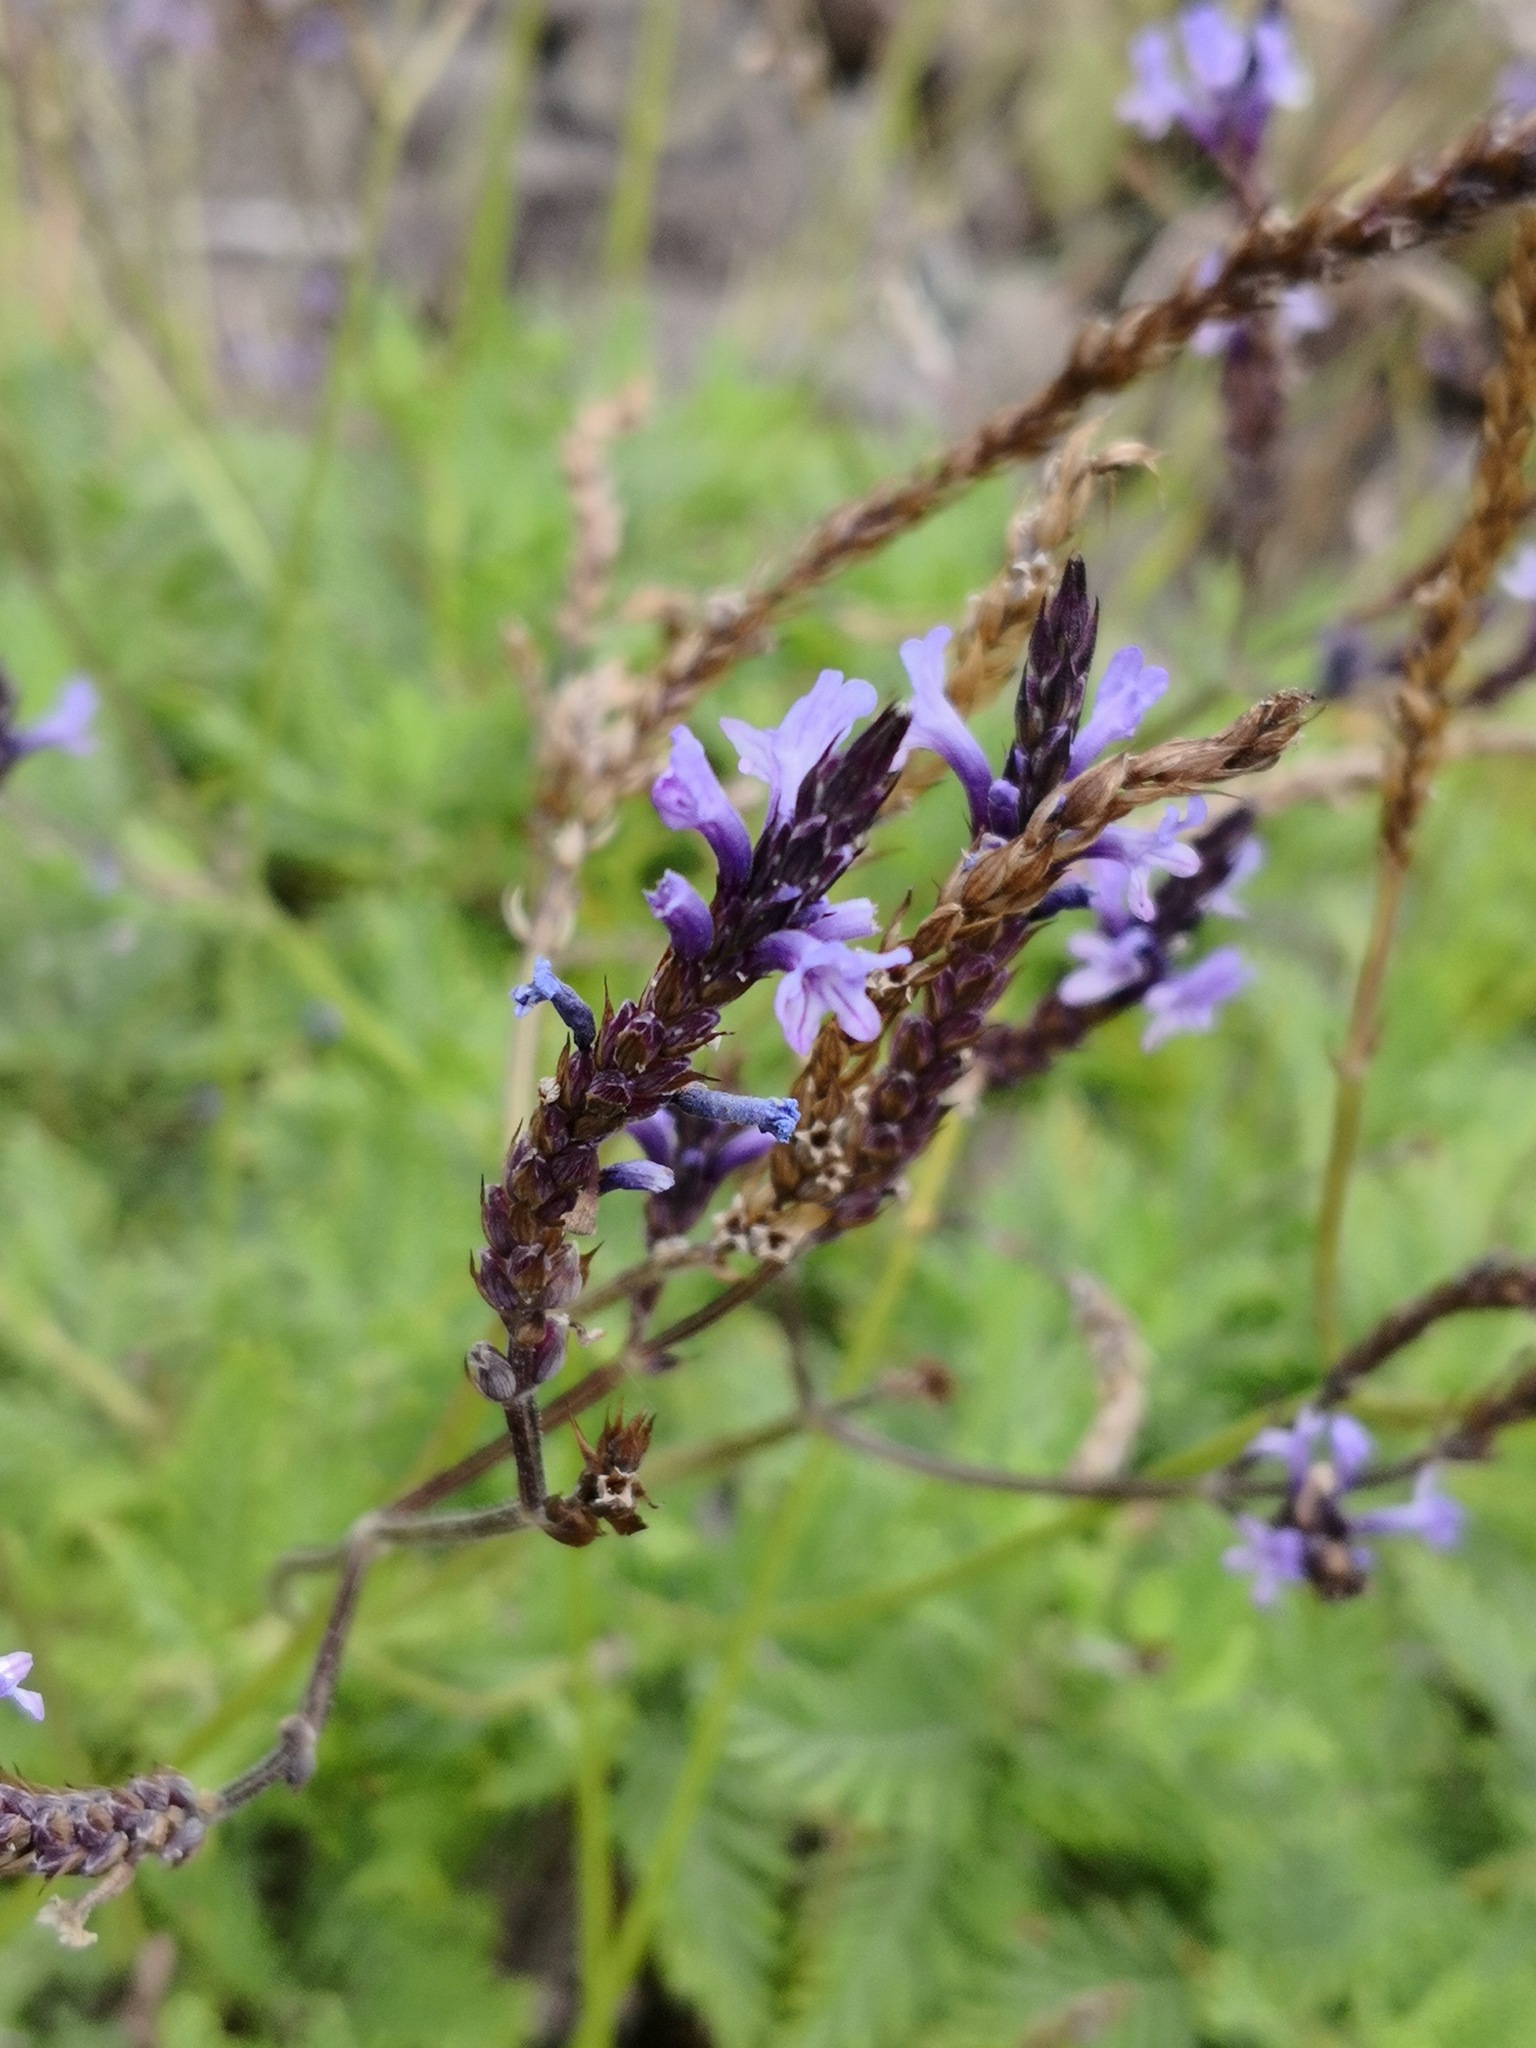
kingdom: Plantae
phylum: Tracheophyta
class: Magnoliopsida
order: Lamiales
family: Lamiaceae
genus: Lavandula
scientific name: Lavandula canariensis
